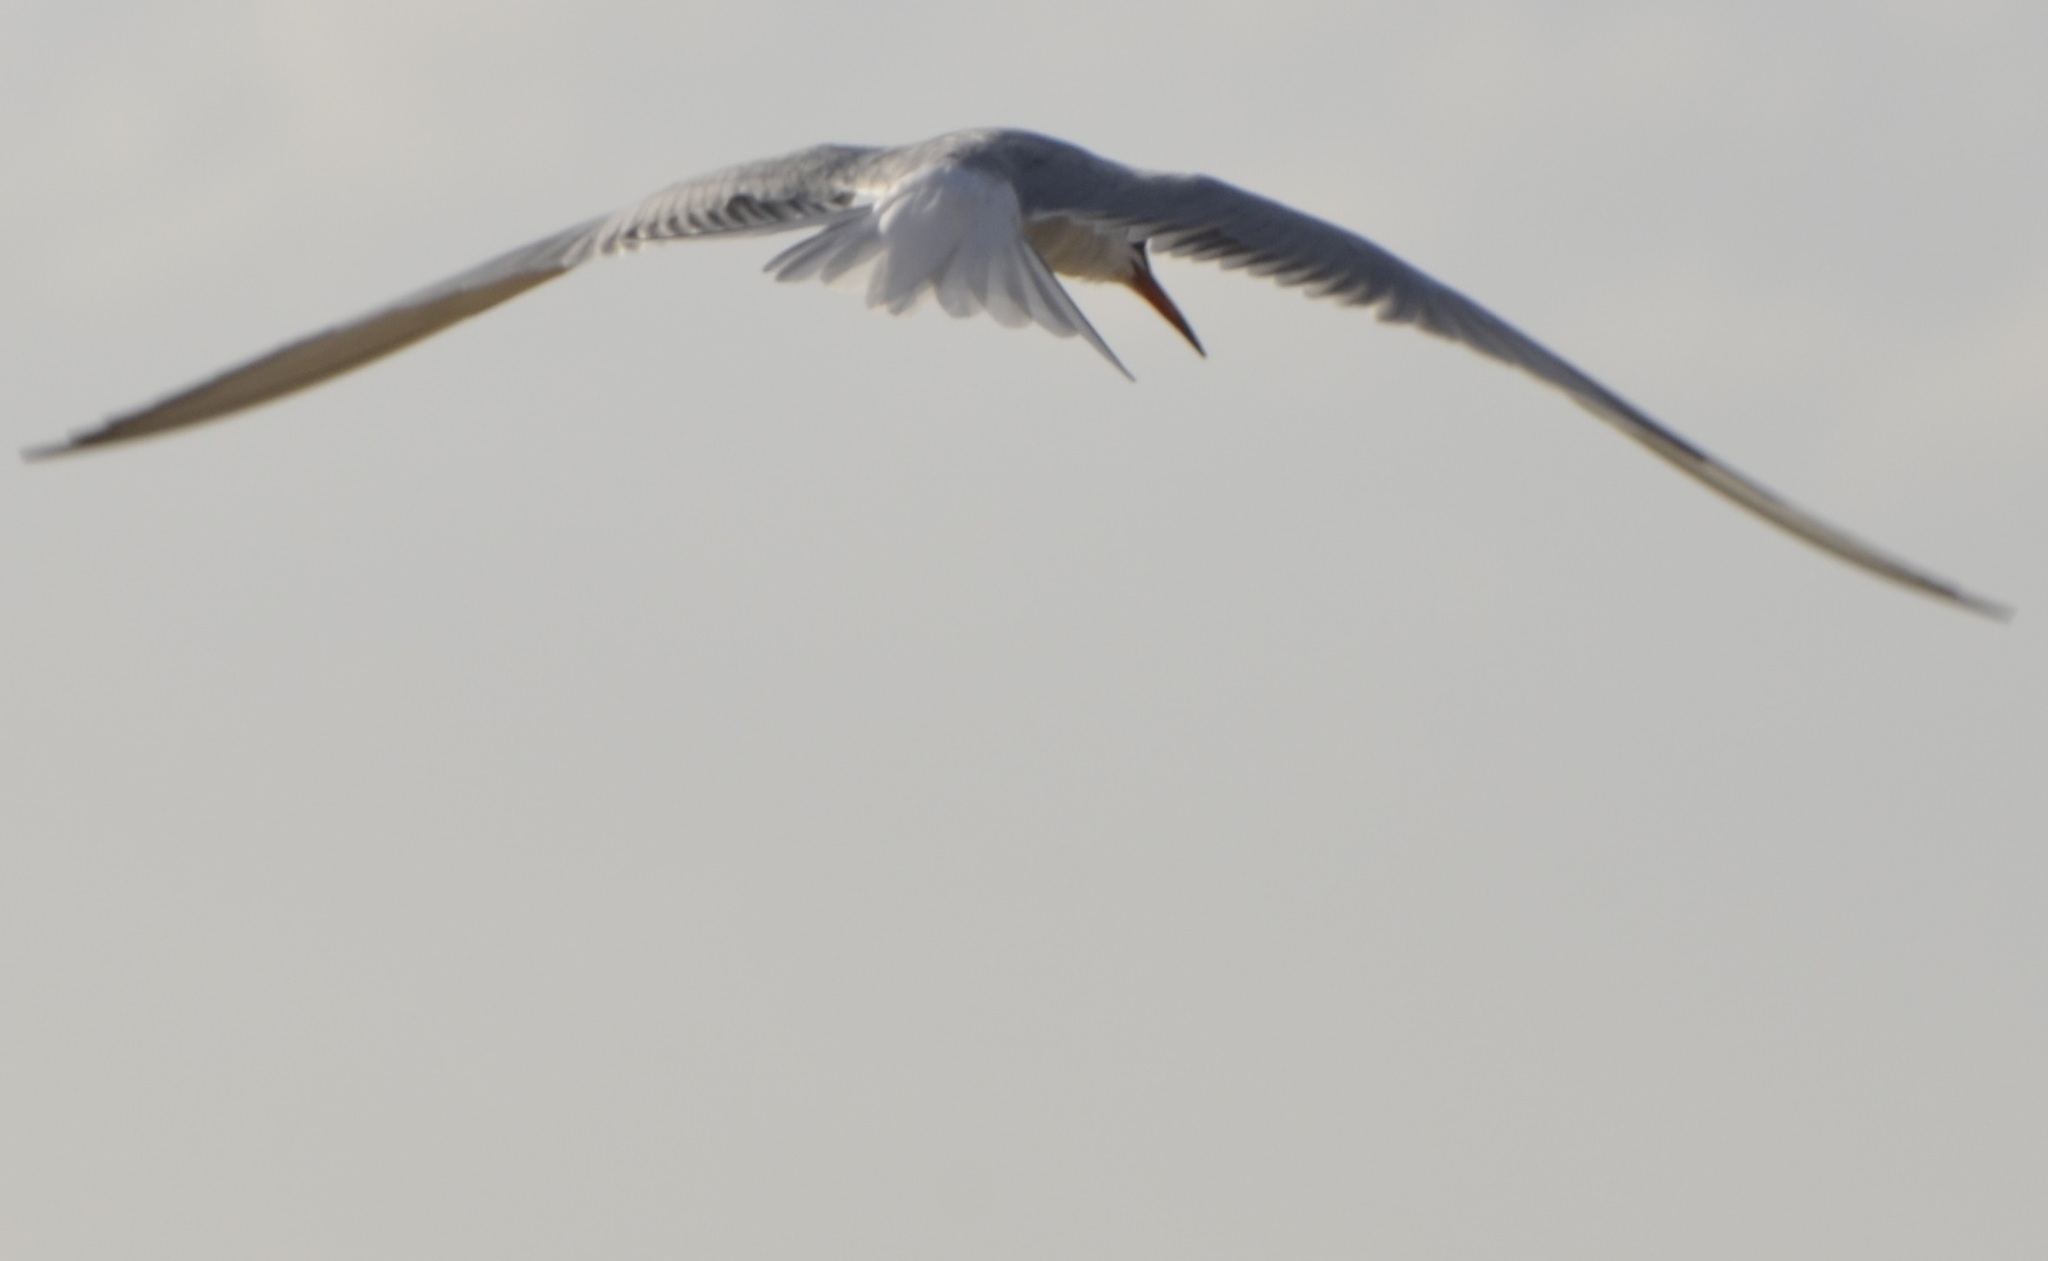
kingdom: Animalia
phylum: Chordata
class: Aves
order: Charadriiformes
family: Laridae
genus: Sterna
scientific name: Sterna hirundo
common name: Common tern
